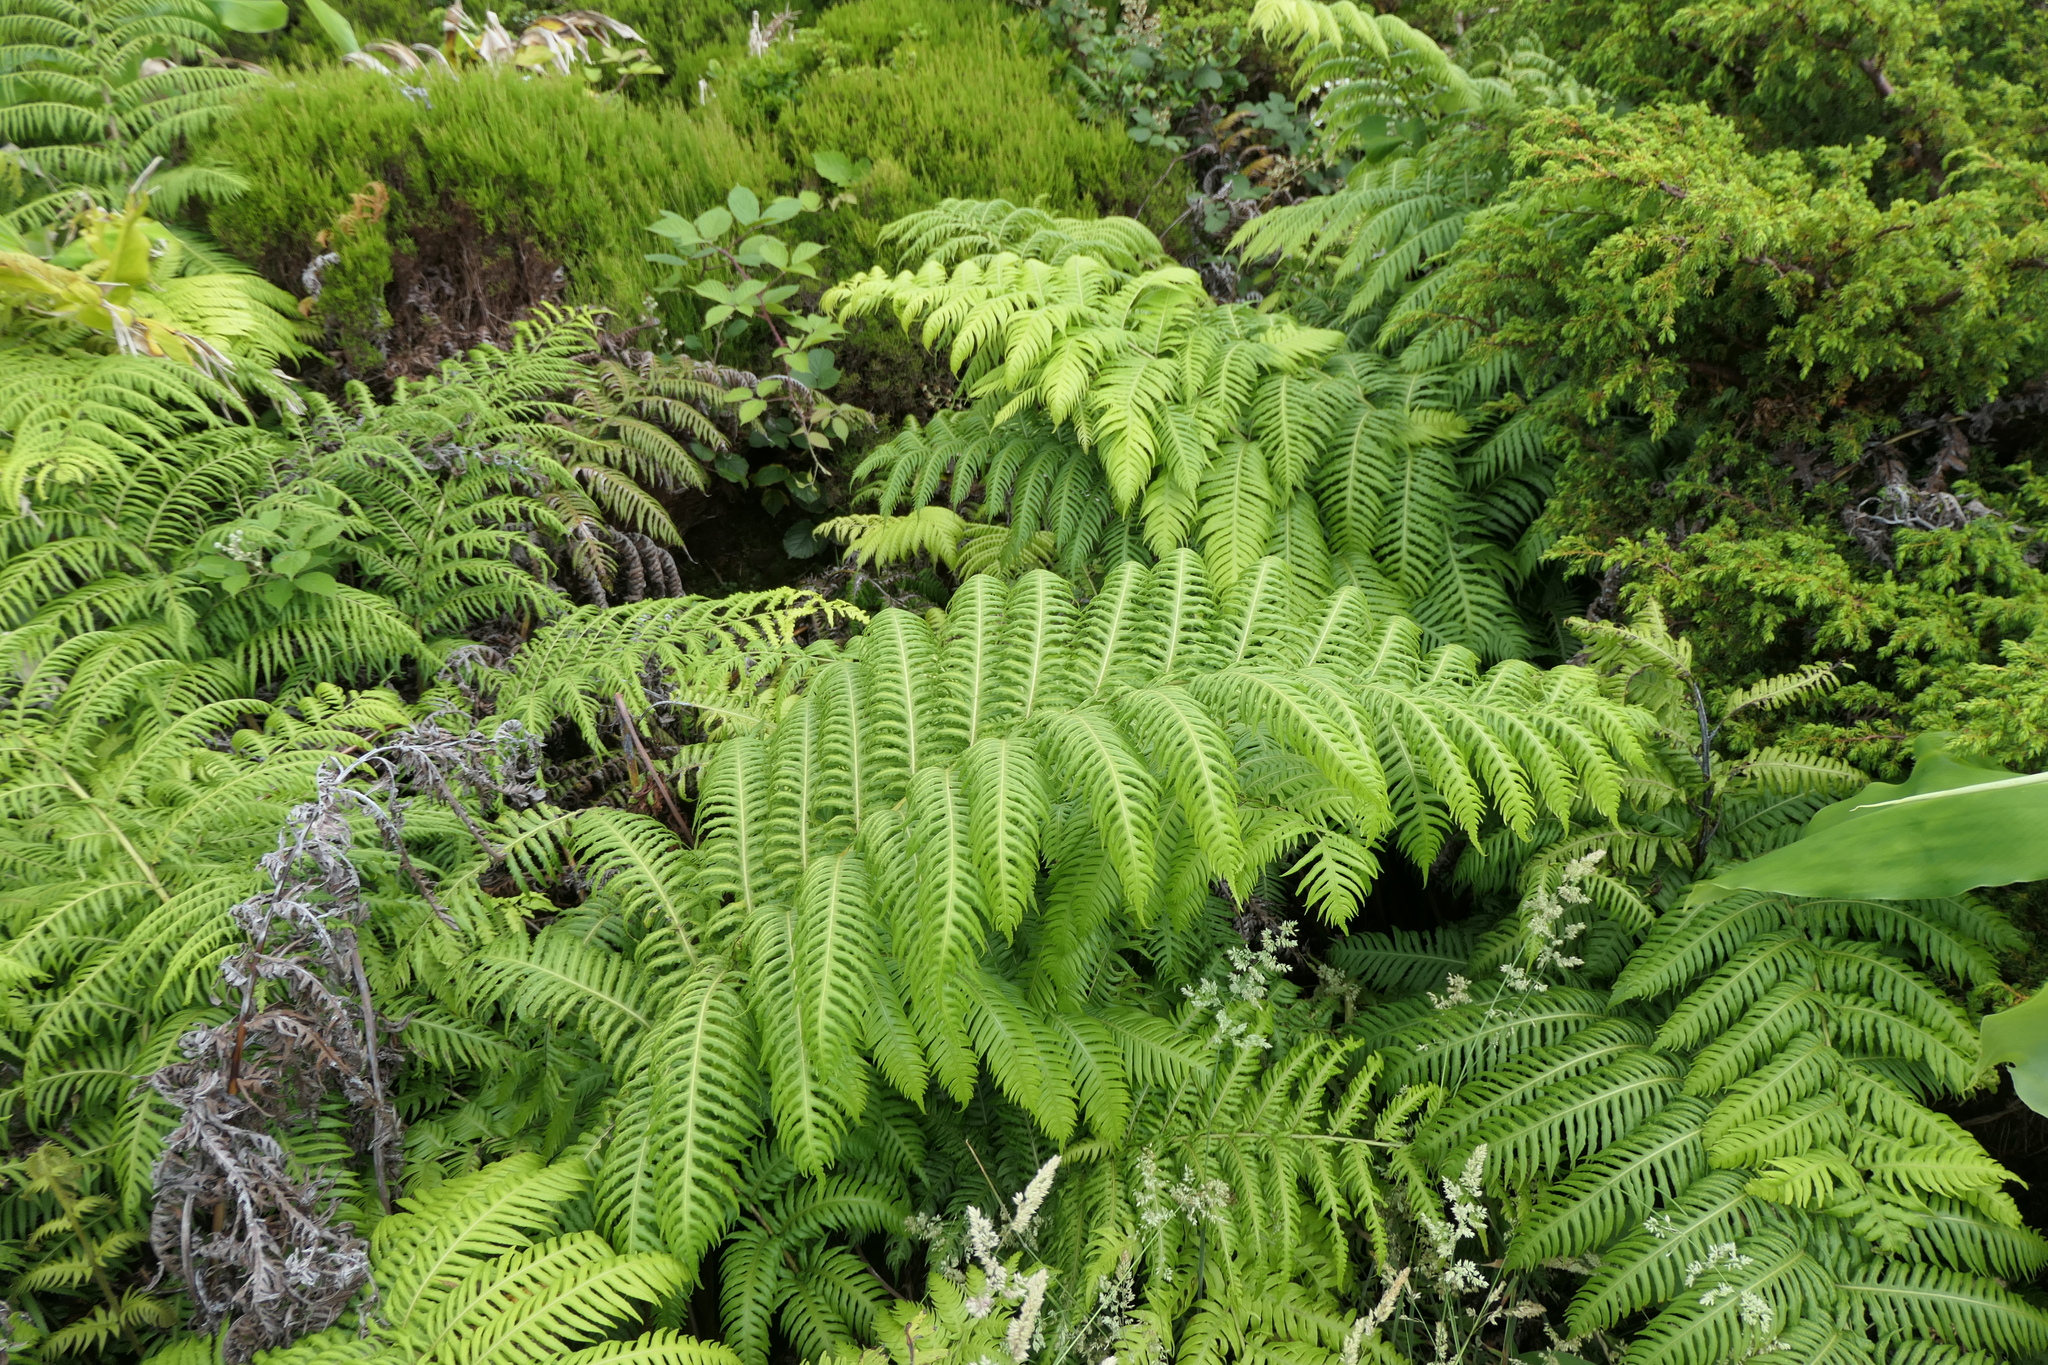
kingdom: Plantae
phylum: Tracheophyta
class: Polypodiopsida
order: Polypodiales
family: Blechnaceae
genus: Woodwardia
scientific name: Woodwardia radicans
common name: Rooting chainfern
